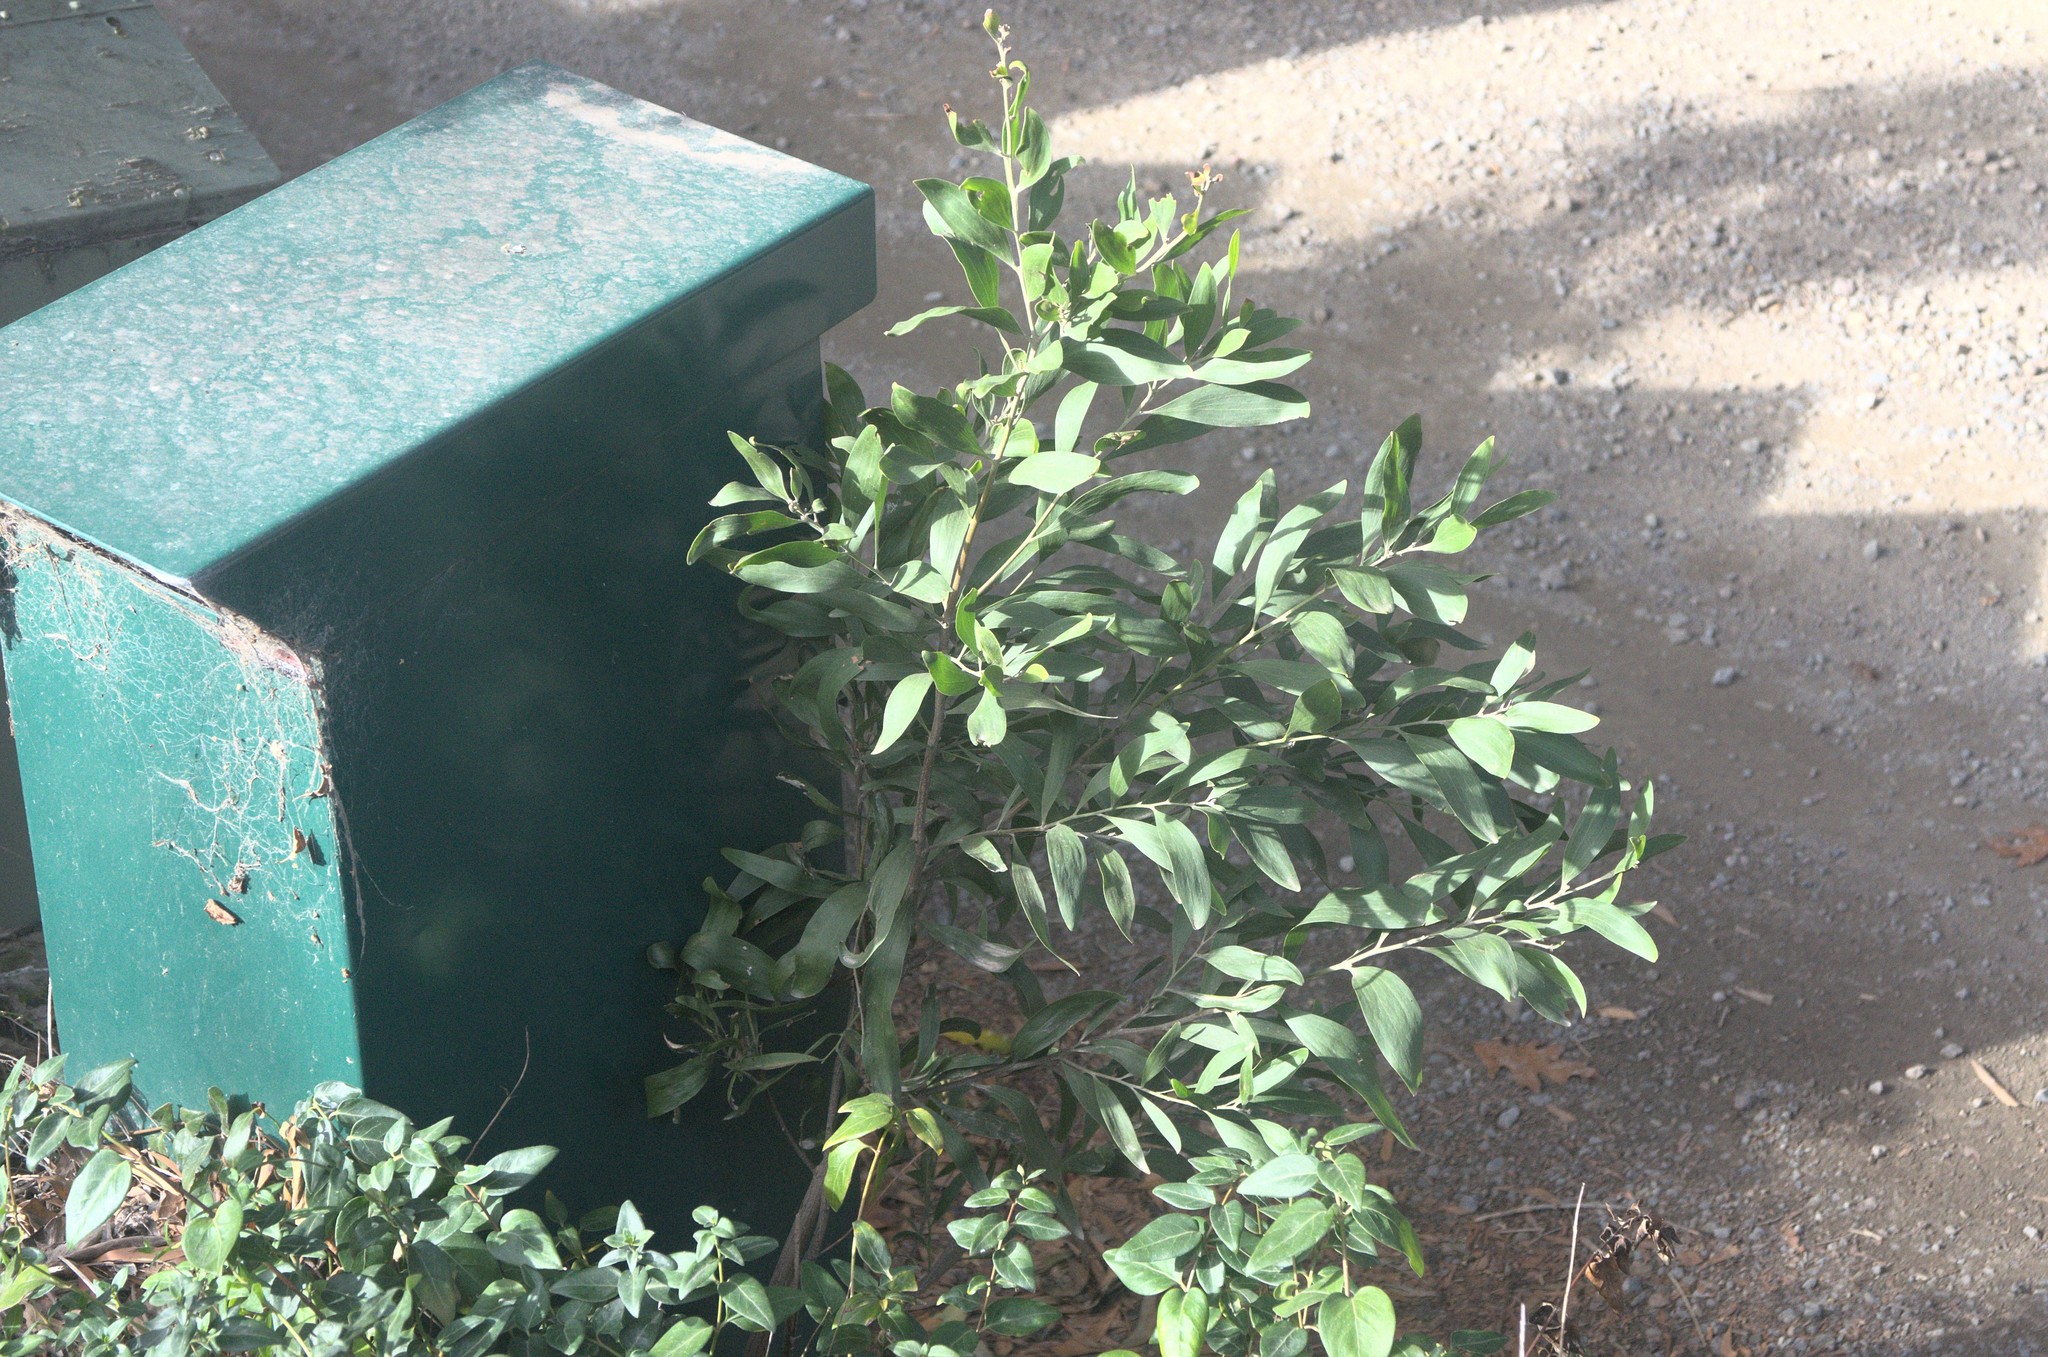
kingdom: Plantae
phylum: Tracheophyta
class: Magnoliopsida
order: Fabales
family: Fabaceae
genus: Acacia
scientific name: Acacia melanoxylon
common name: Blackwood
